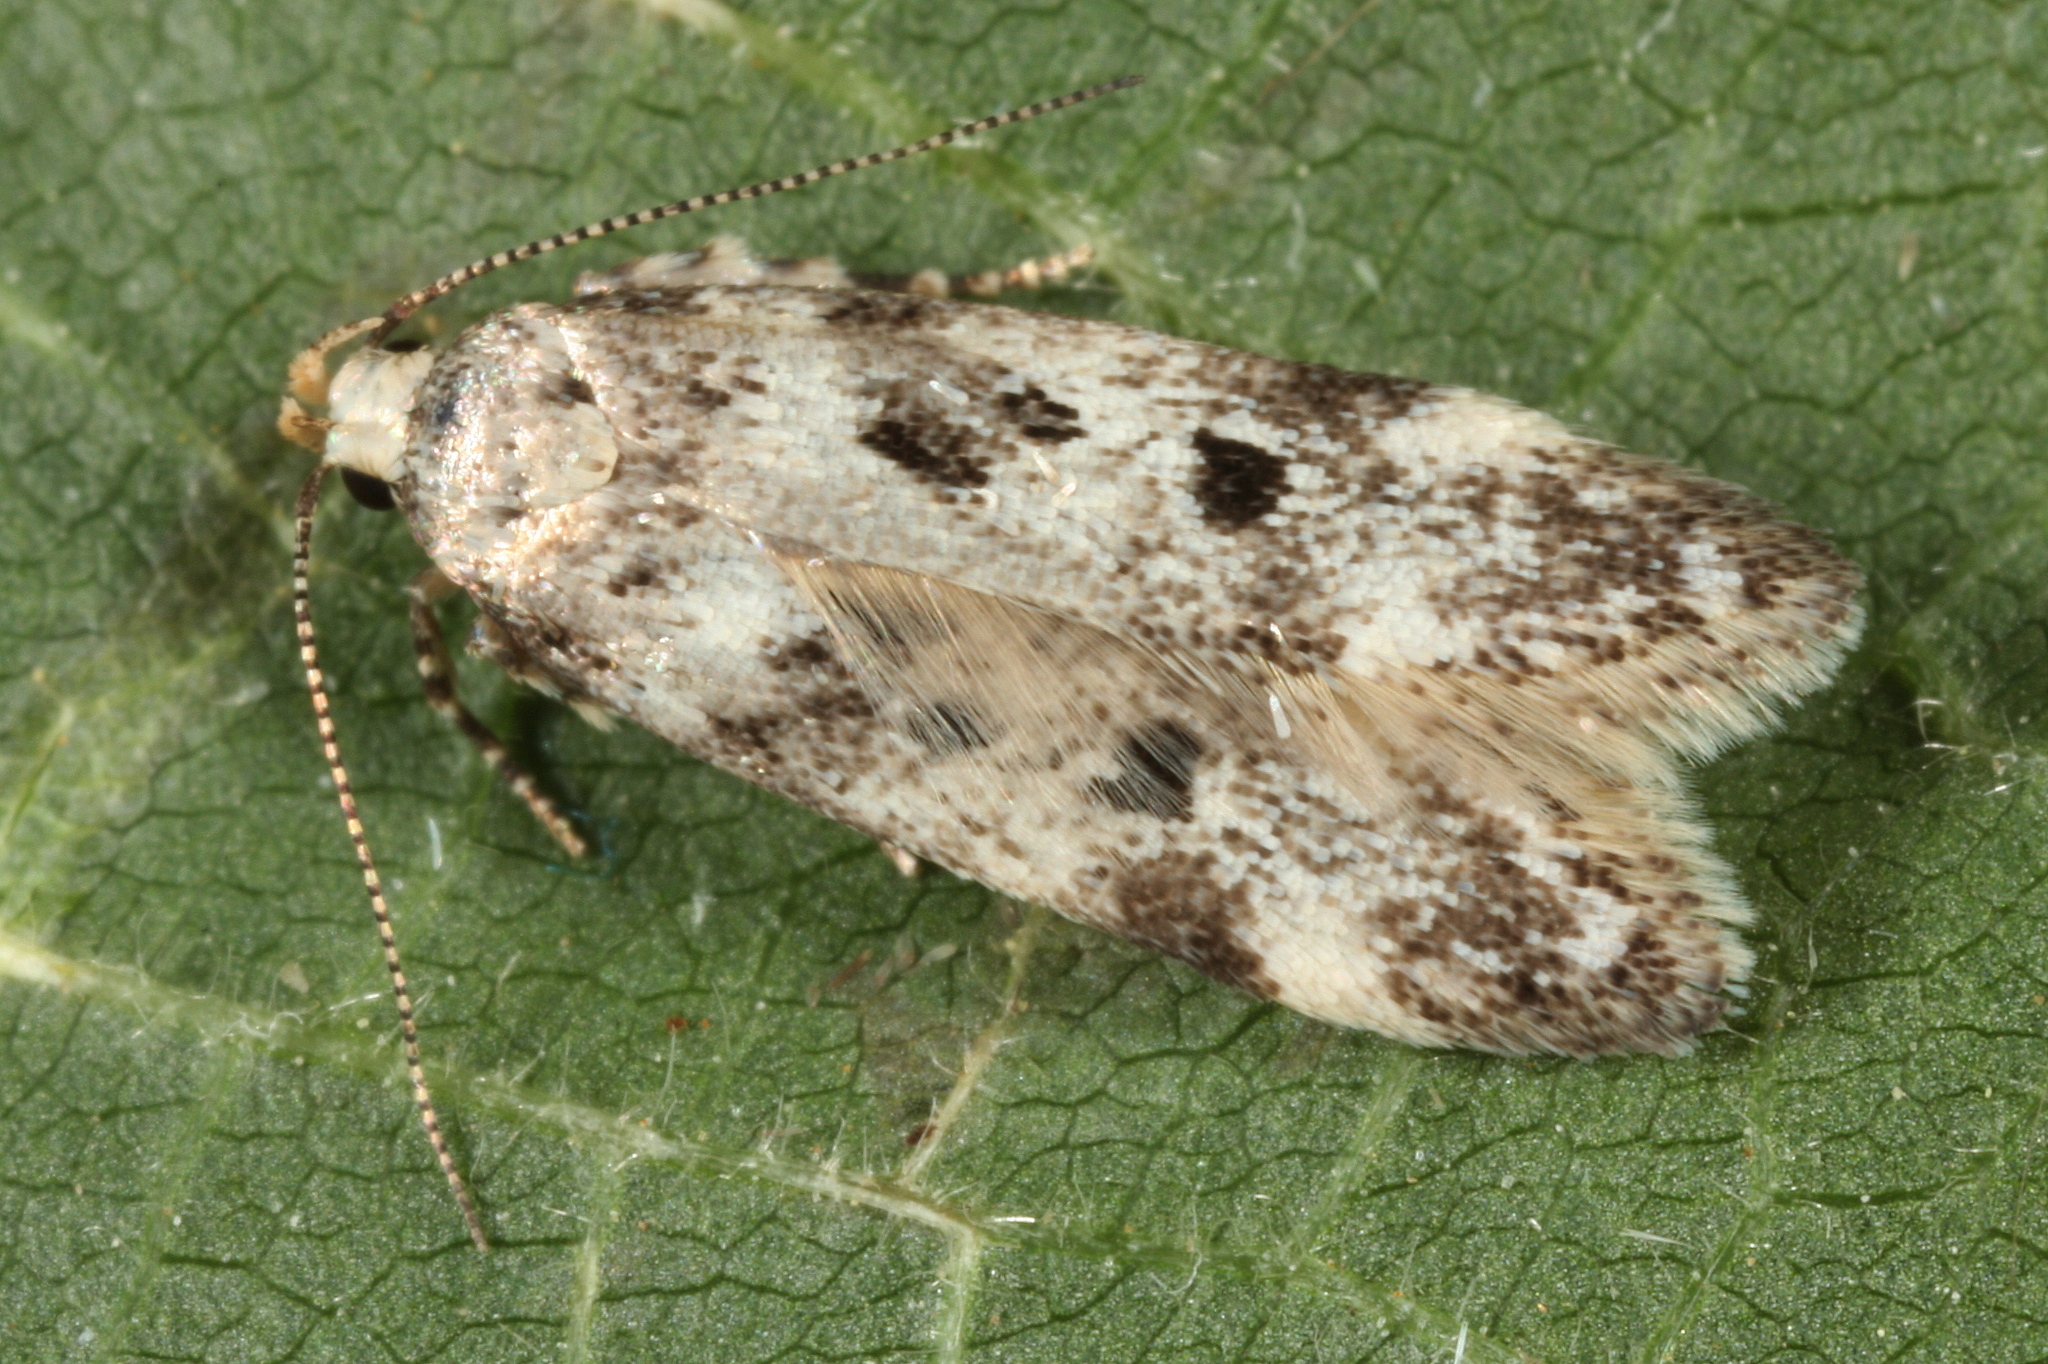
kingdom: Animalia
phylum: Arthropoda
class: Insecta
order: Lepidoptera
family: Gelechiidae
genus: Chionodes
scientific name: Chionodes electella
